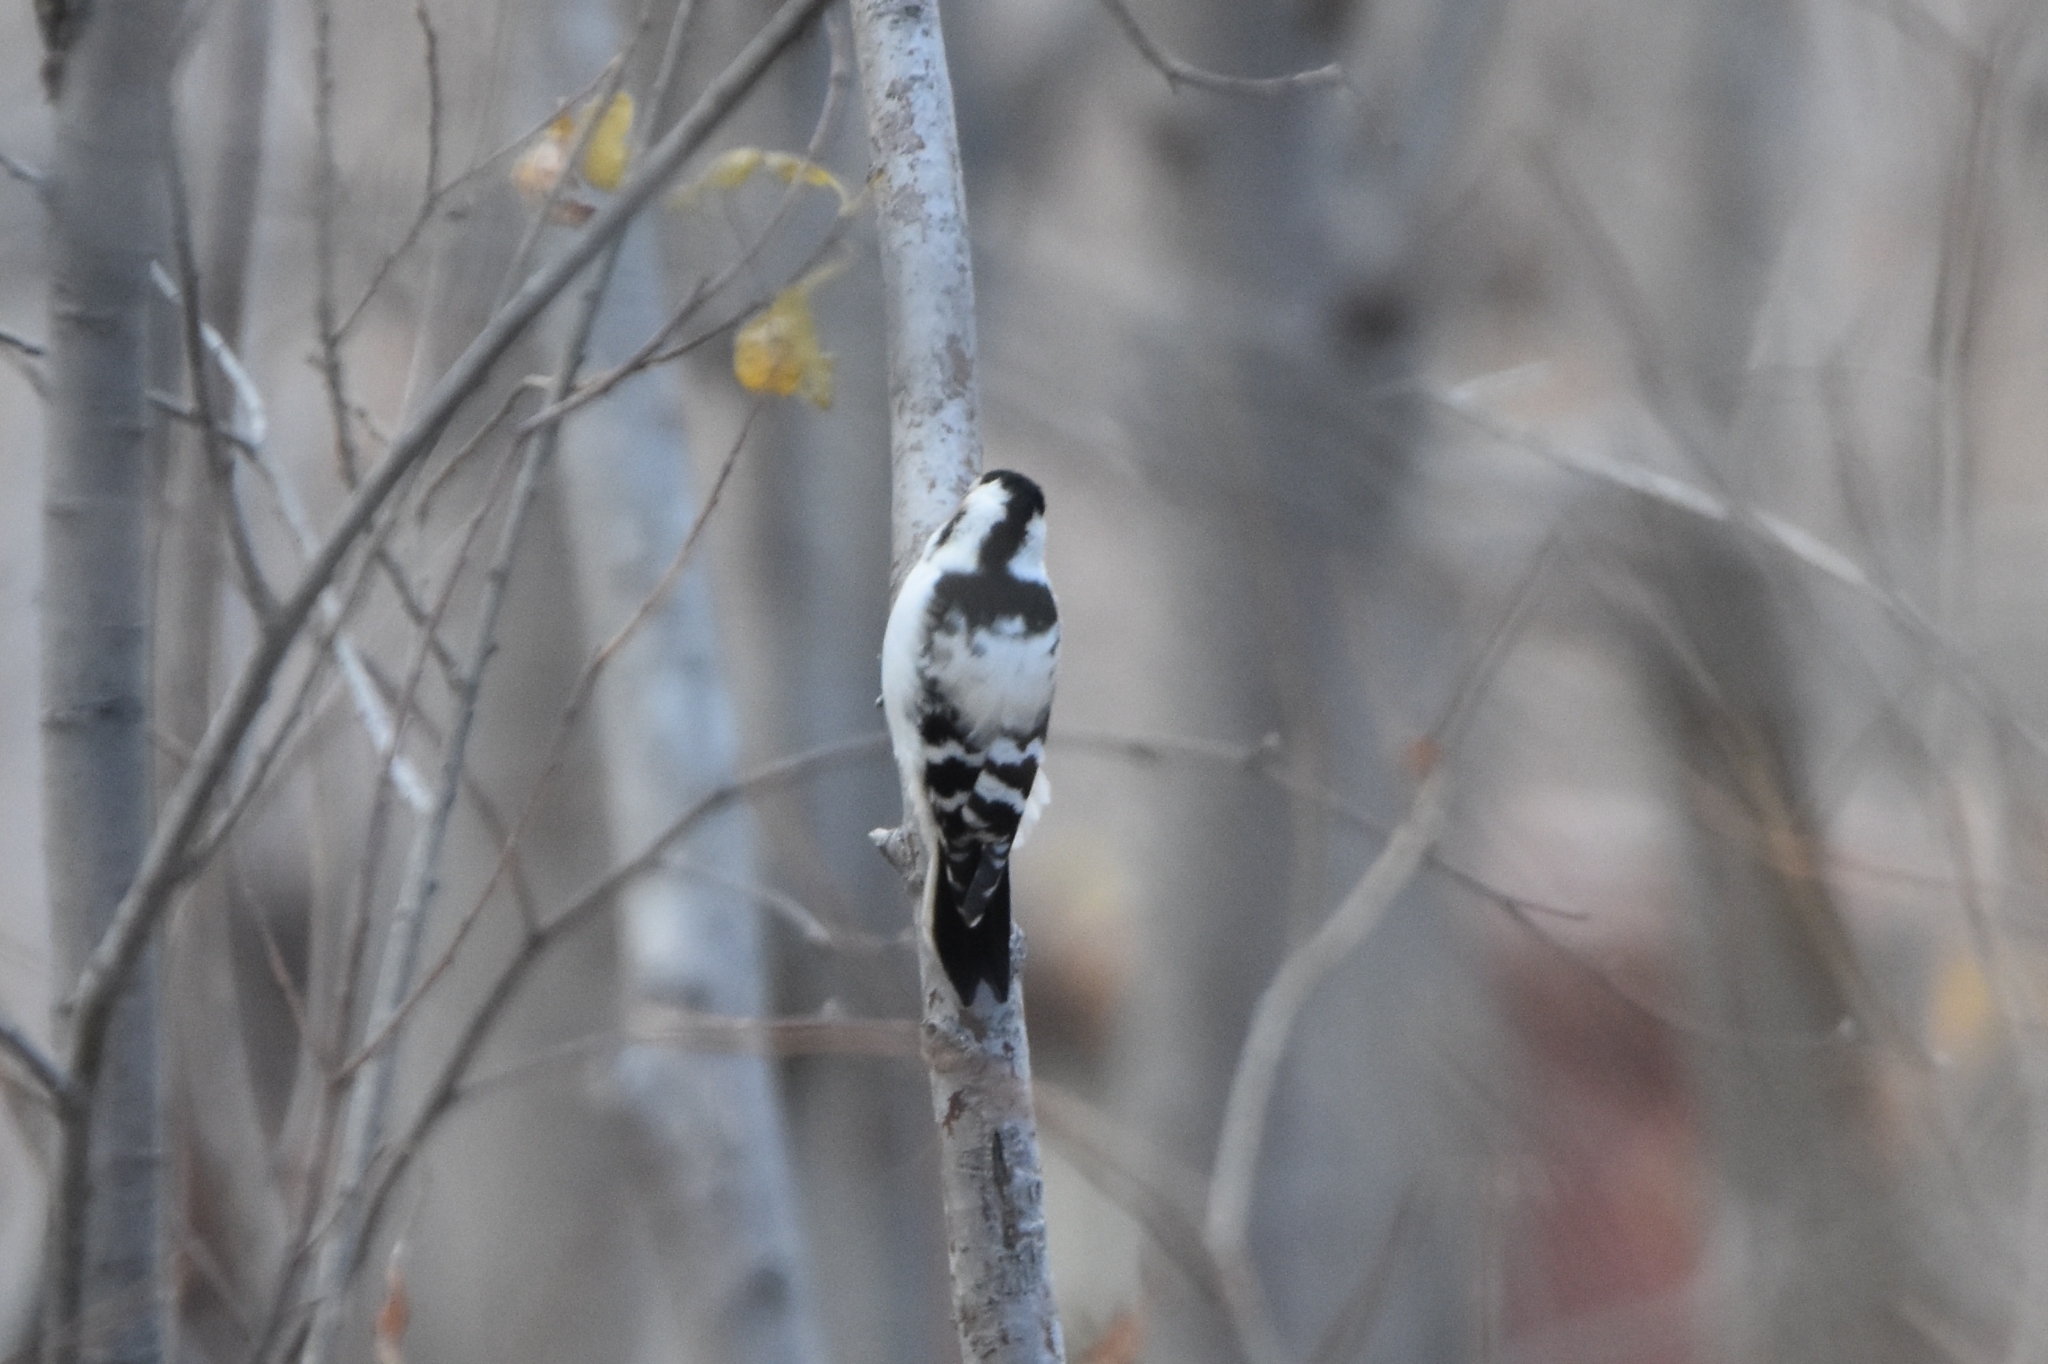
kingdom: Animalia
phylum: Chordata
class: Aves
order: Piciformes
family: Picidae
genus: Dryobates
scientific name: Dryobates minor
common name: Lesser spotted woodpecker
